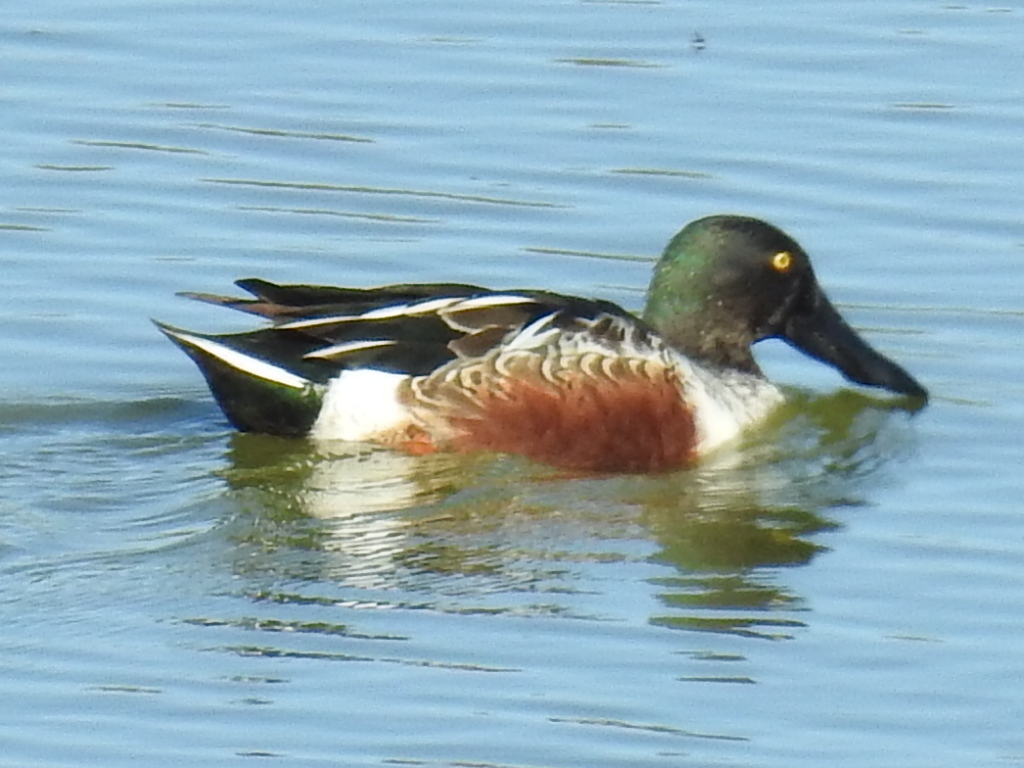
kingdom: Animalia
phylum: Chordata
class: Aves
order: Anseriformes
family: Anatidae
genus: Spatula
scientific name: Spatula clypeata
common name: Northern shoveler
